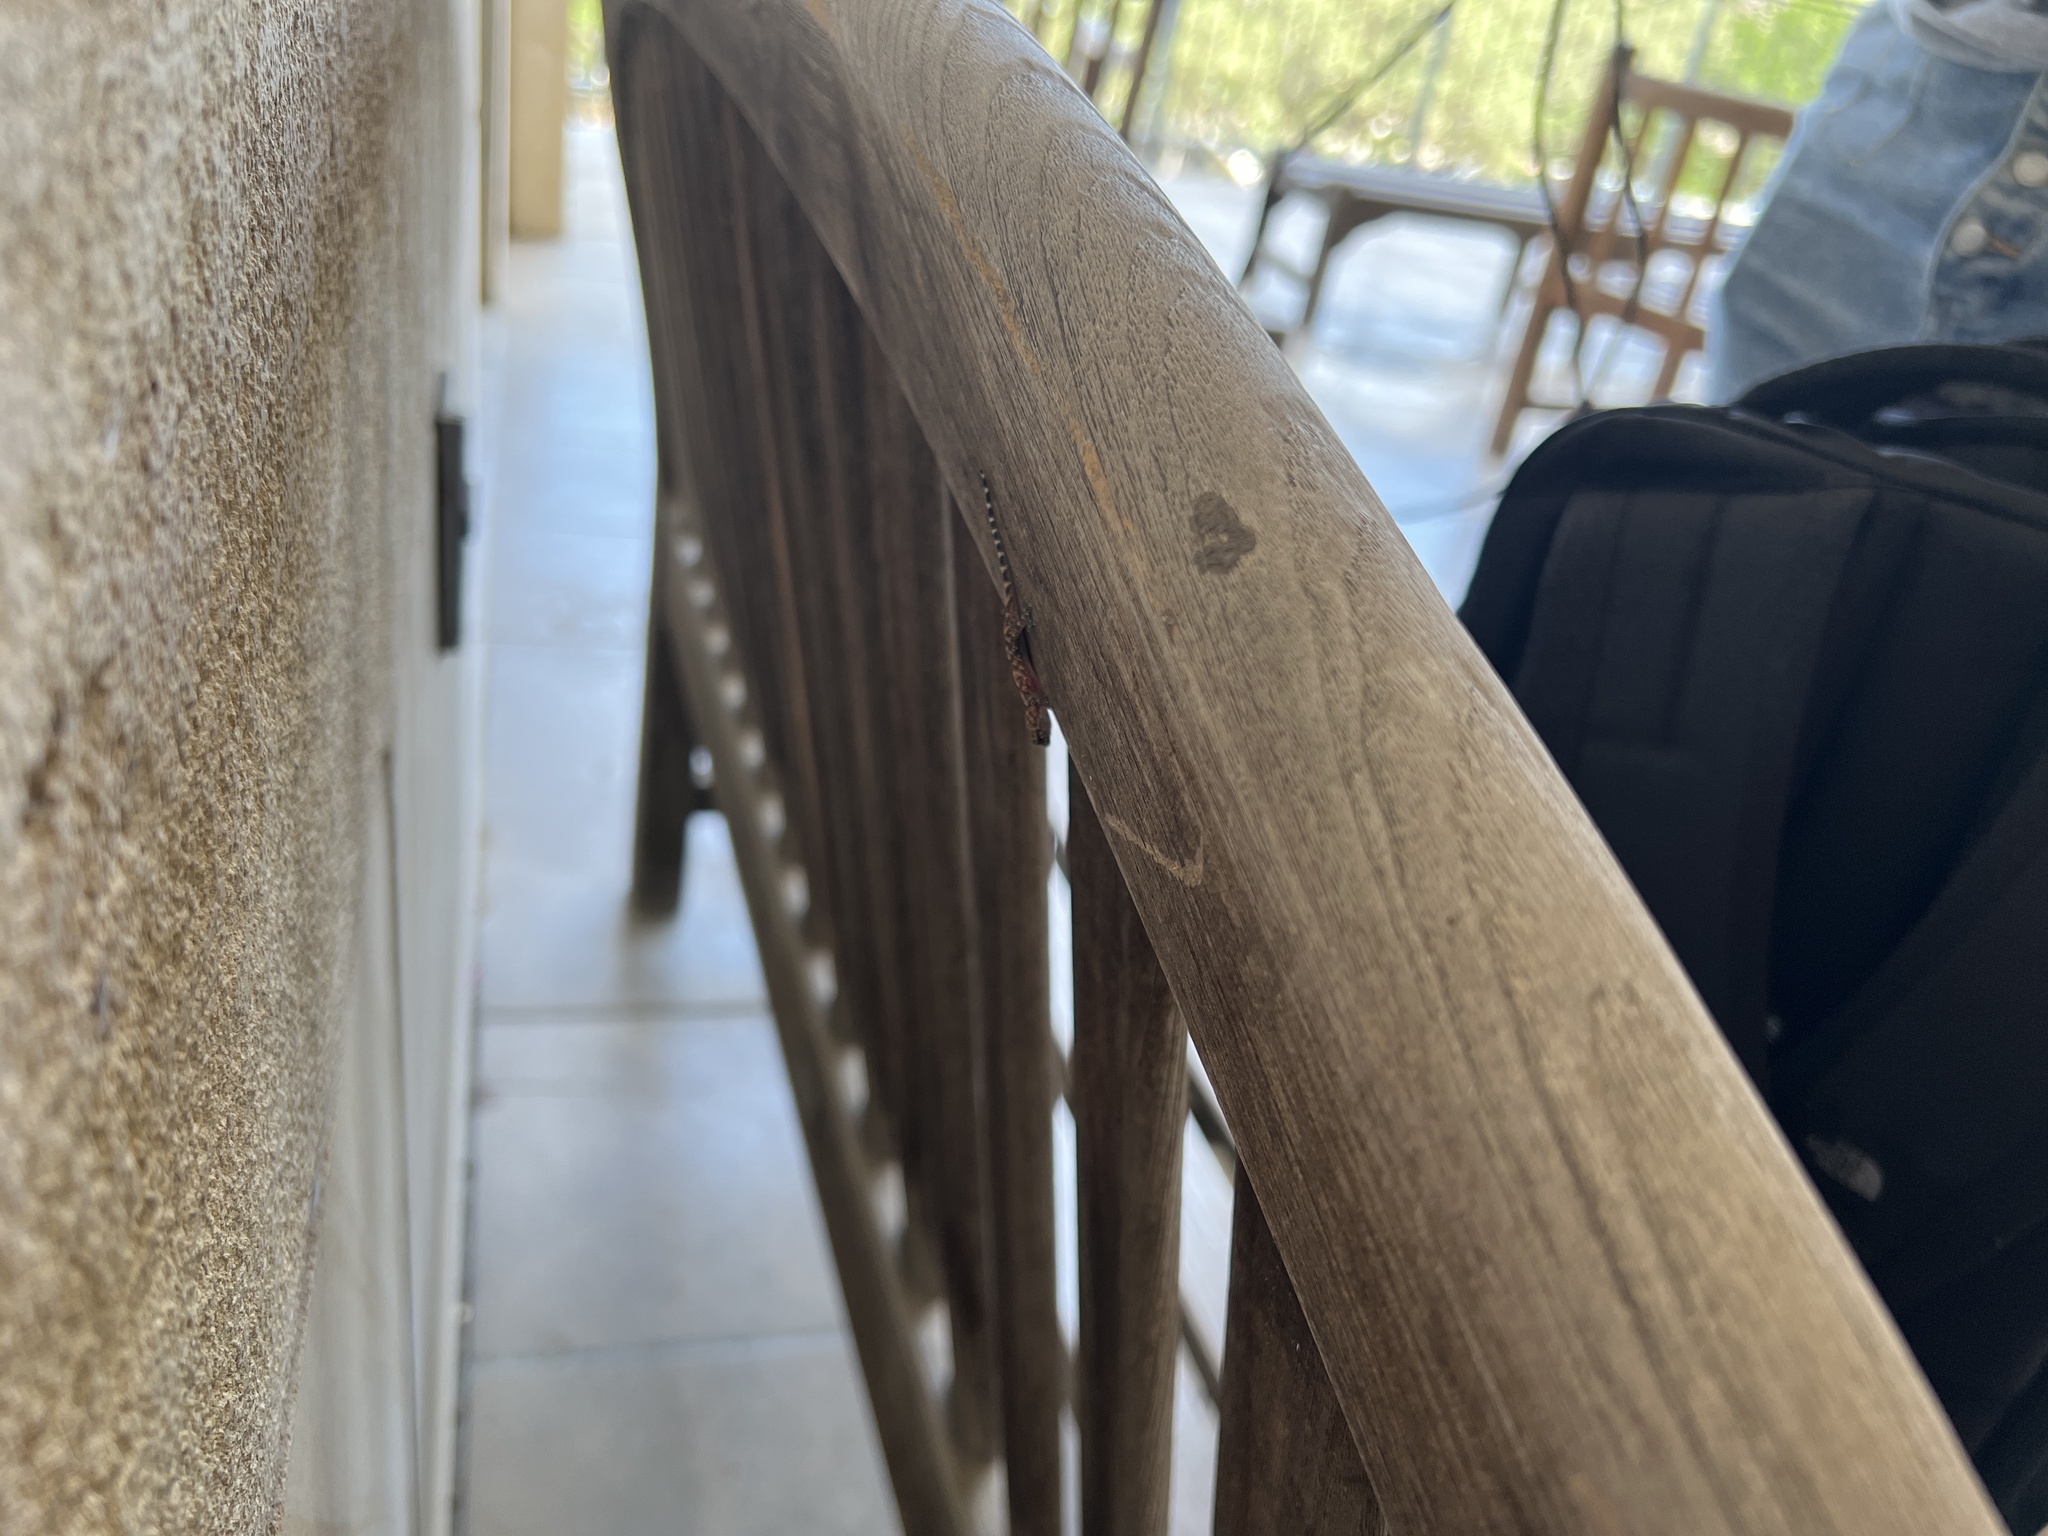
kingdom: Animalia
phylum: Chordata
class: Squamata
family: Gekkonidae
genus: Hemidactylus
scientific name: Hemidactylus turcicus
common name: Turkish gecko
